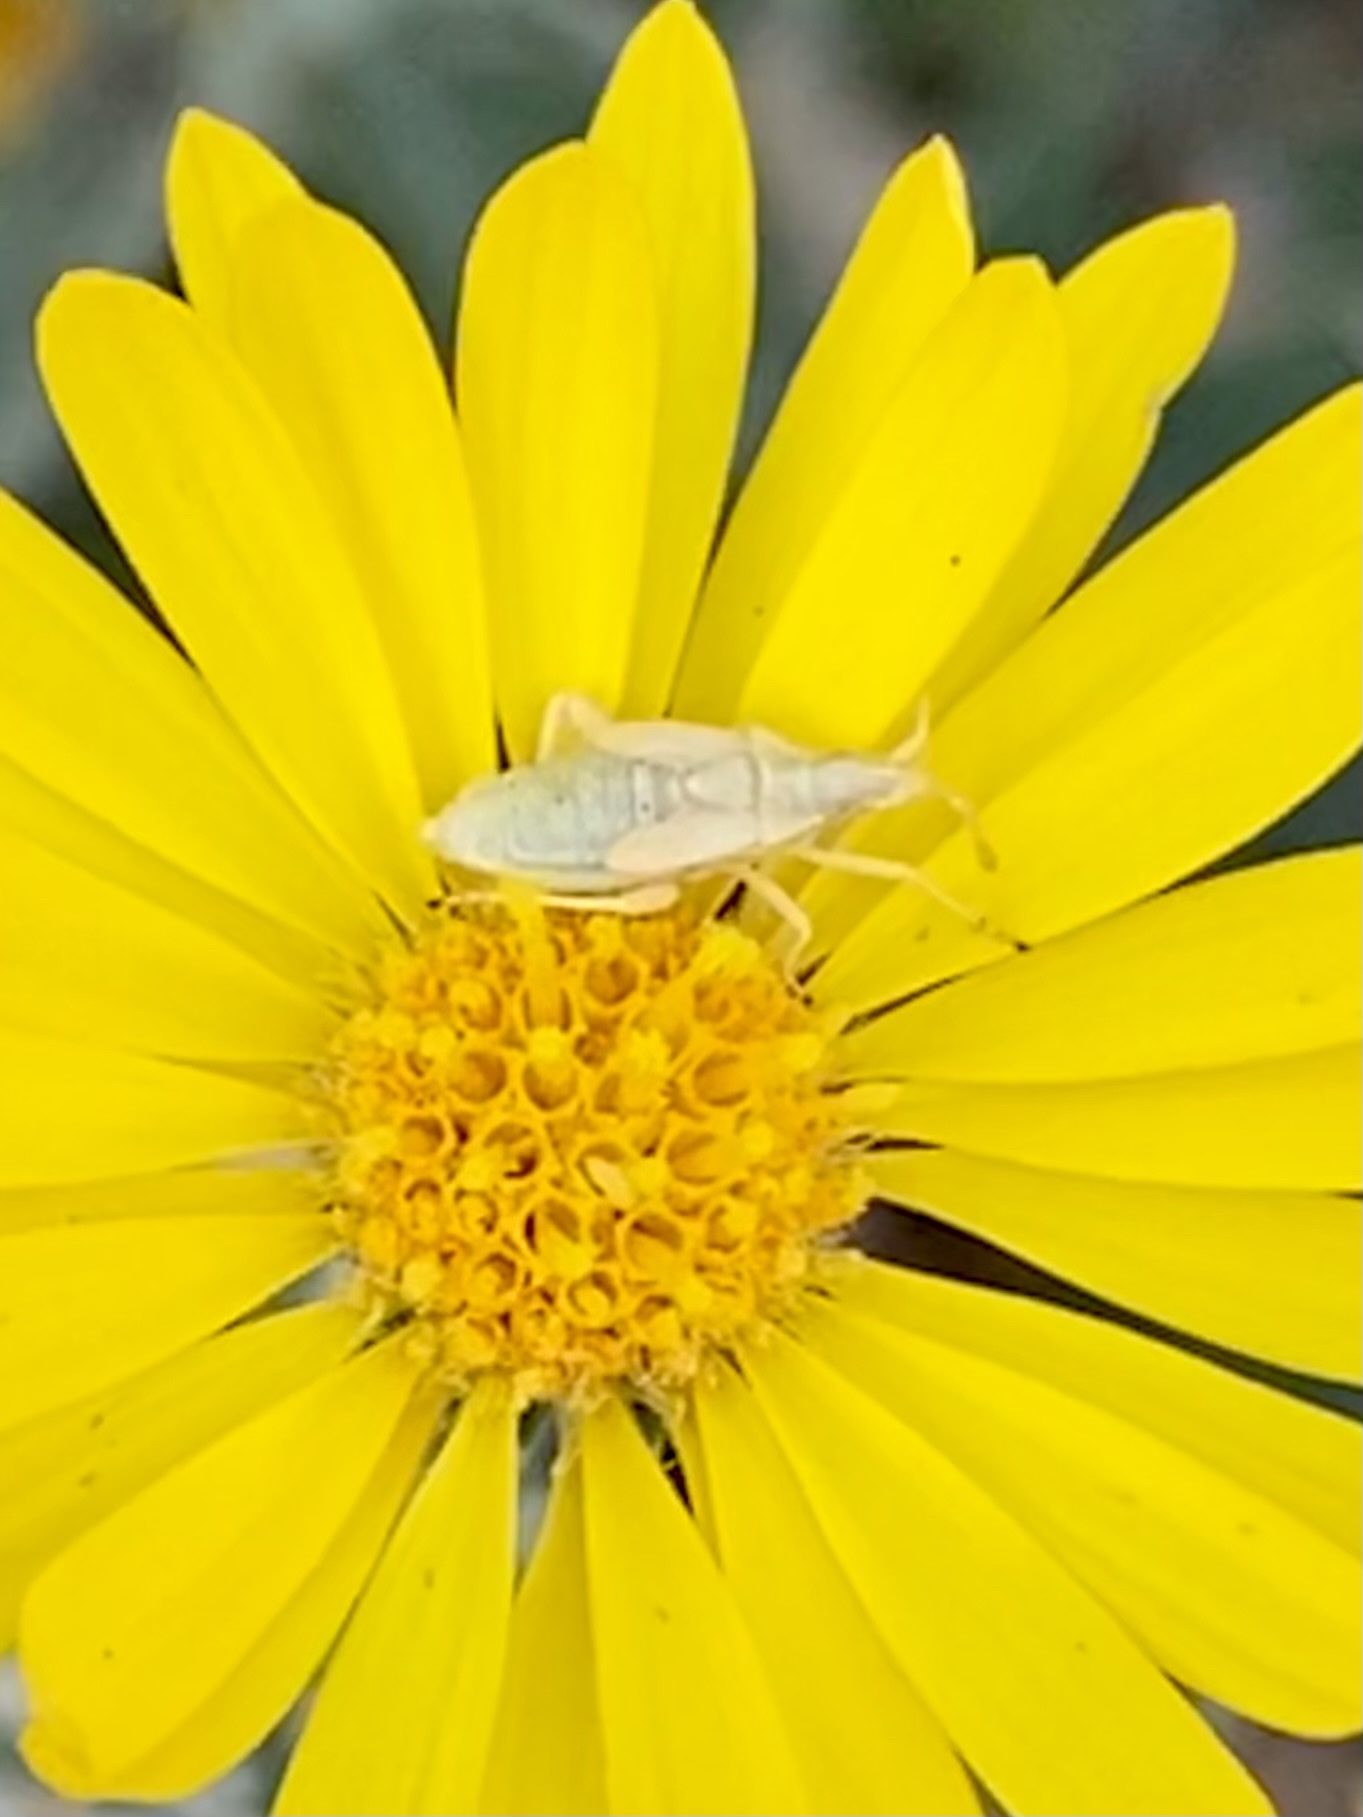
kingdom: Animalia
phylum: Arthropoda
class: Insecta
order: Hemiptera
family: Rhopalidae
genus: Harmostes
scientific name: Harmostes
